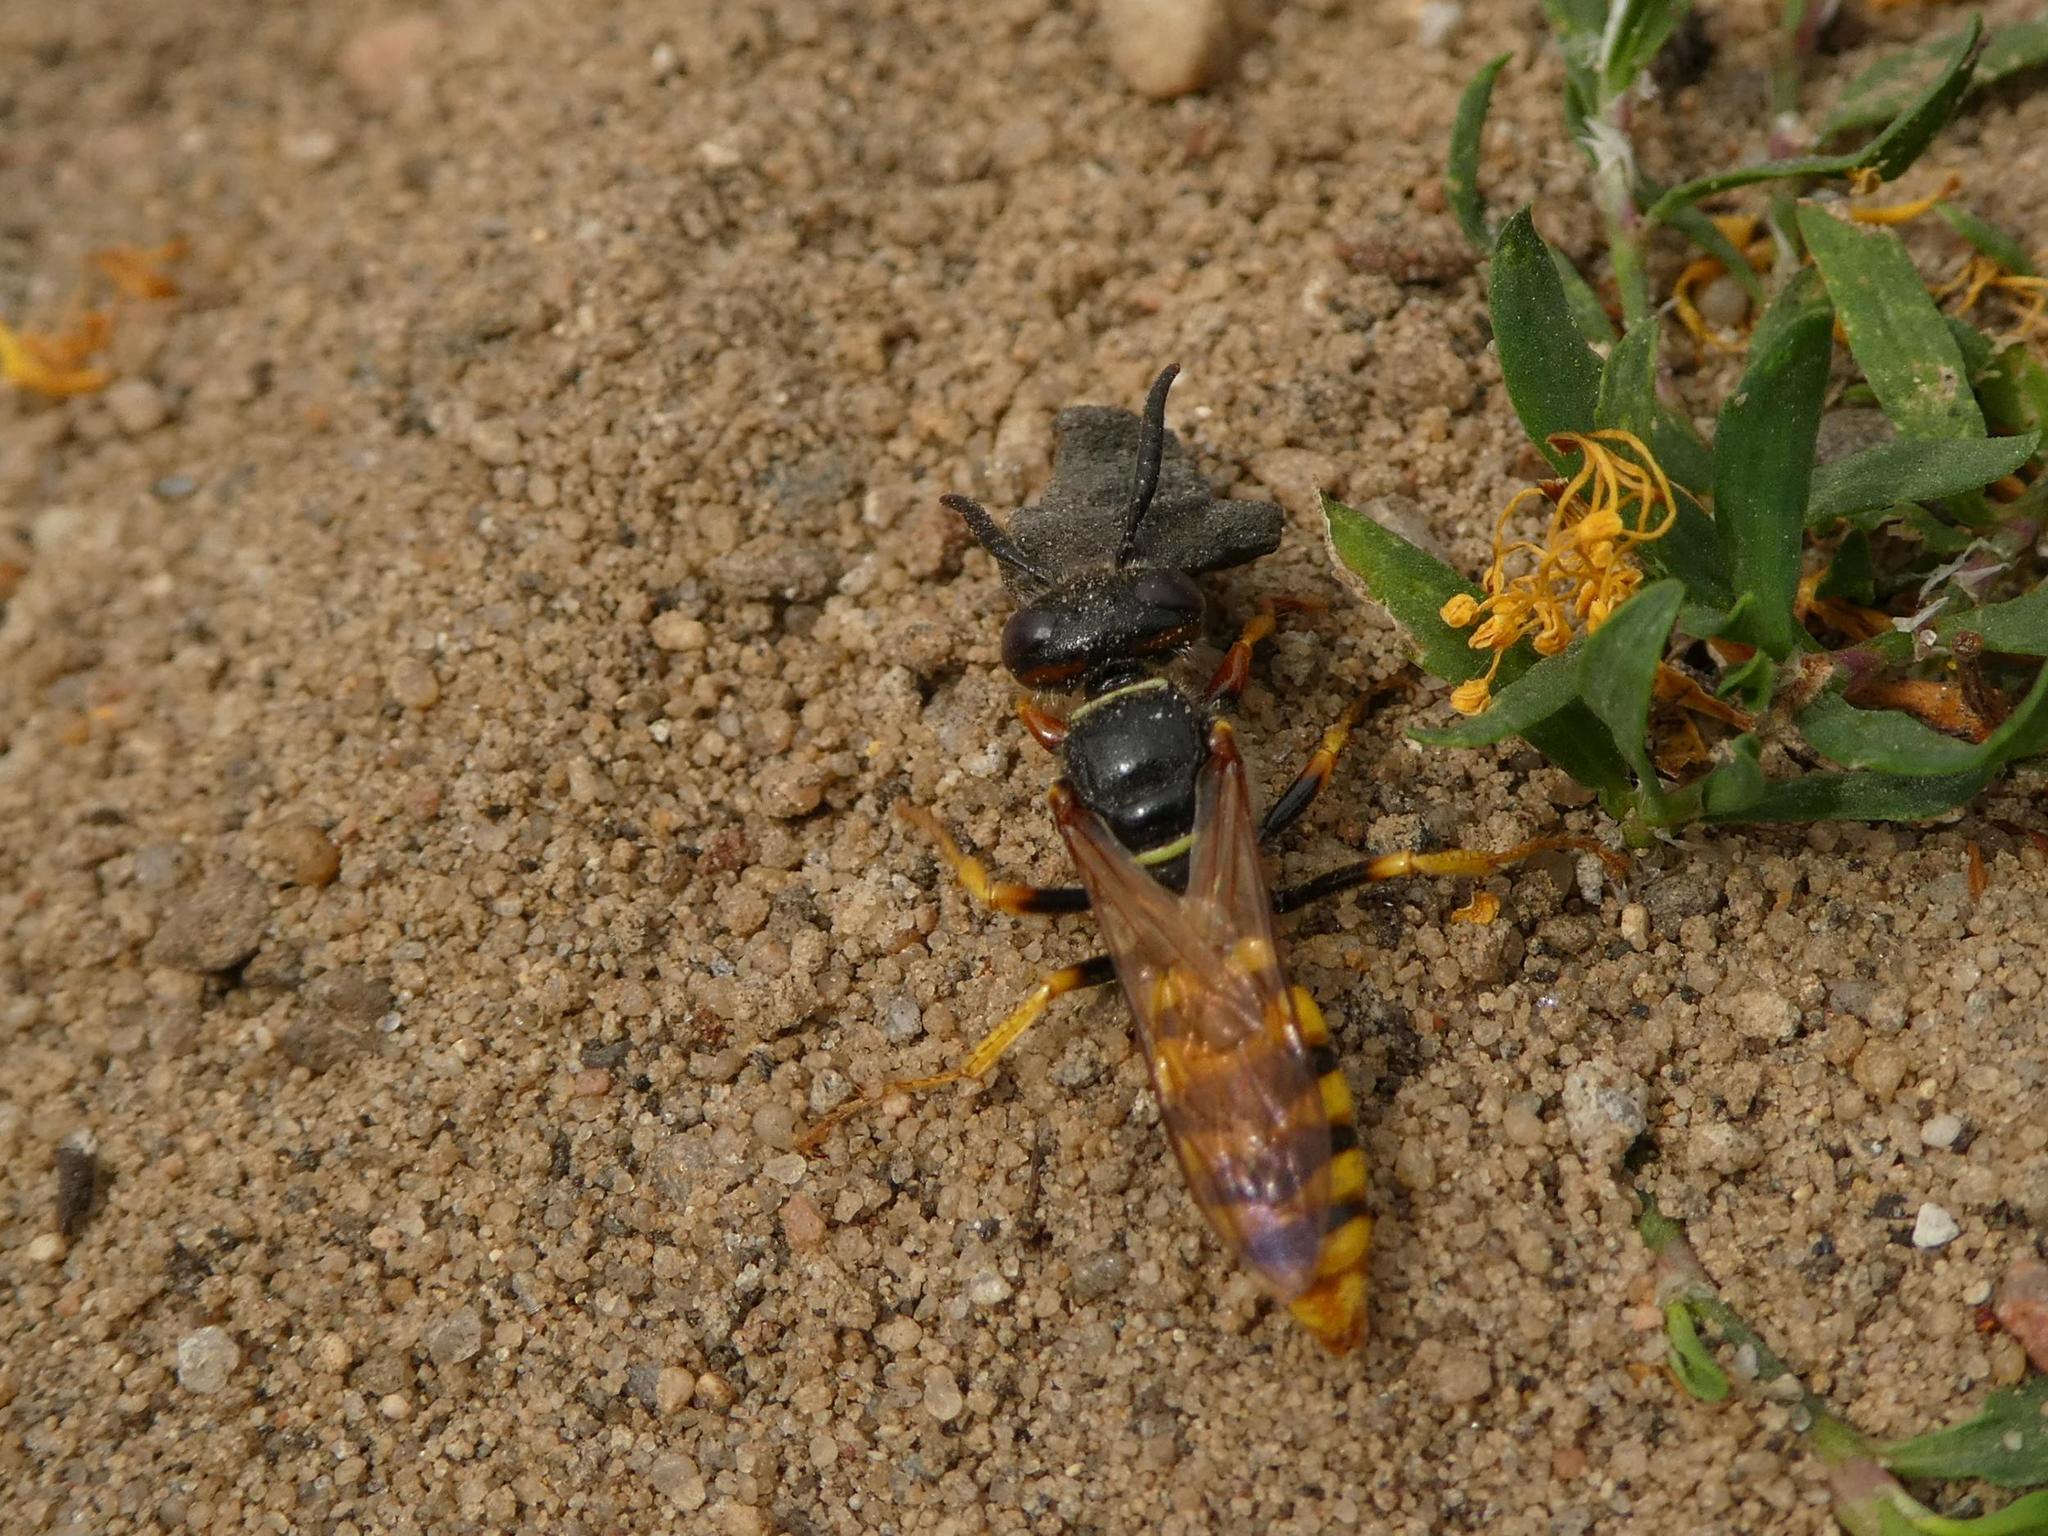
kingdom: Animalia
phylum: Arthropoda
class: Insecta
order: Hymenoptera
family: Crabronidae
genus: Philanthus
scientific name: Philanthus triangulum
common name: Bee wolf
